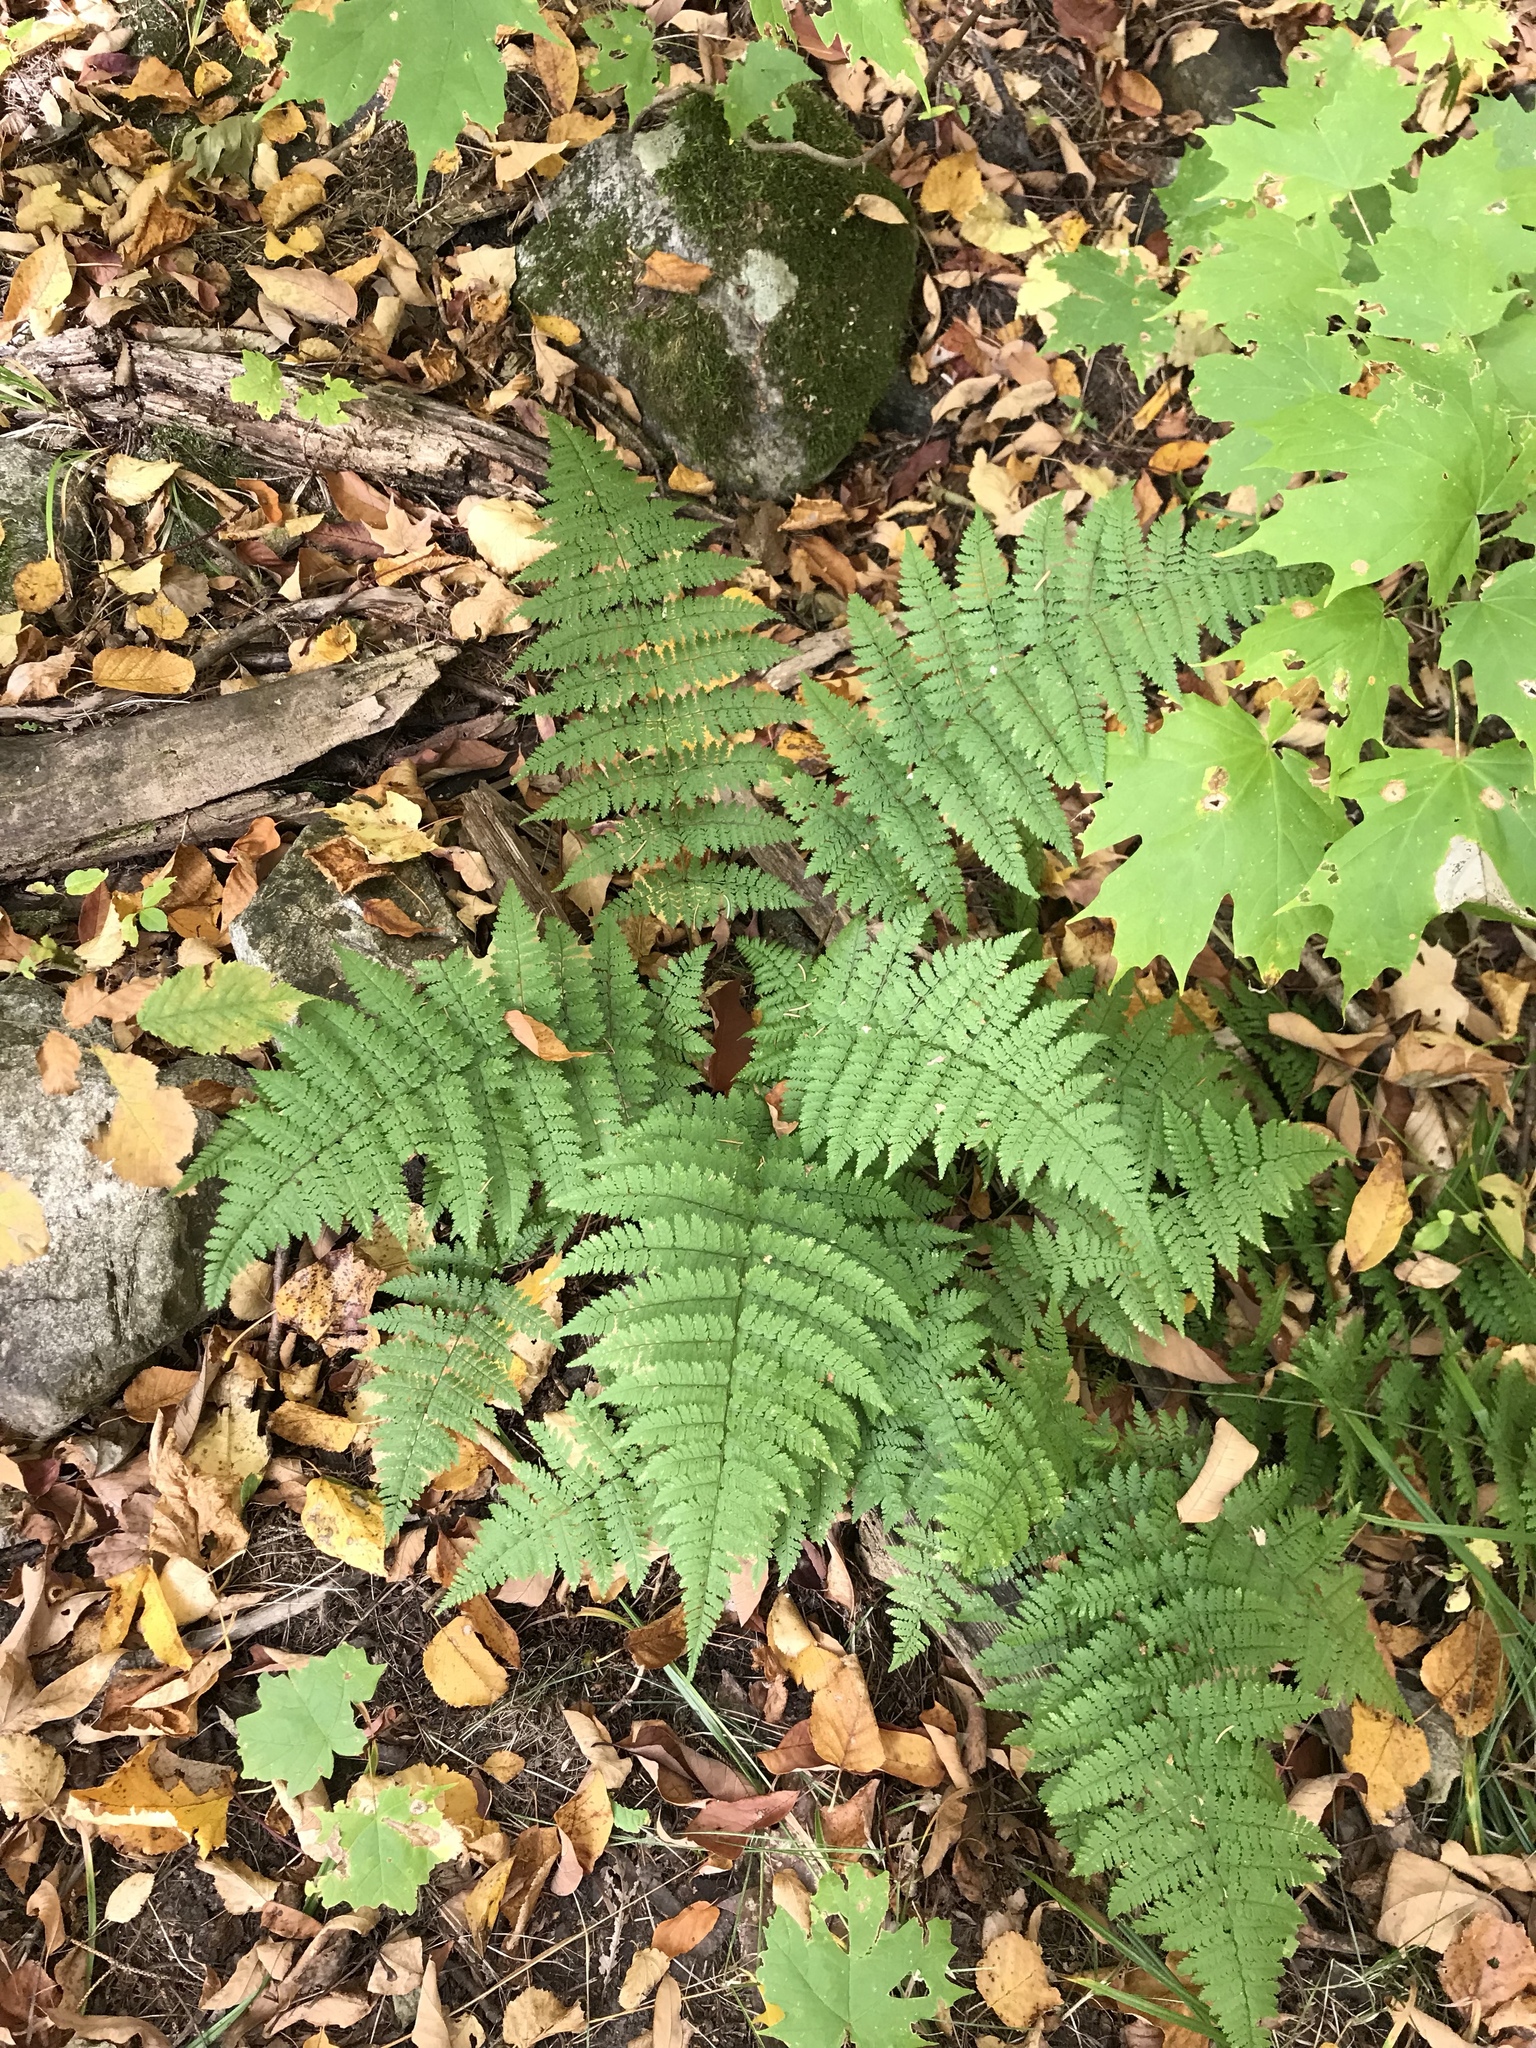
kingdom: Plantae
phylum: Tracheophyta
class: Polypodiopsida
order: Polypodiales
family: Dryopteridaceae
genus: Dryopteris
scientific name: Dryopteris intermedia
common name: Evergreen wood fern
